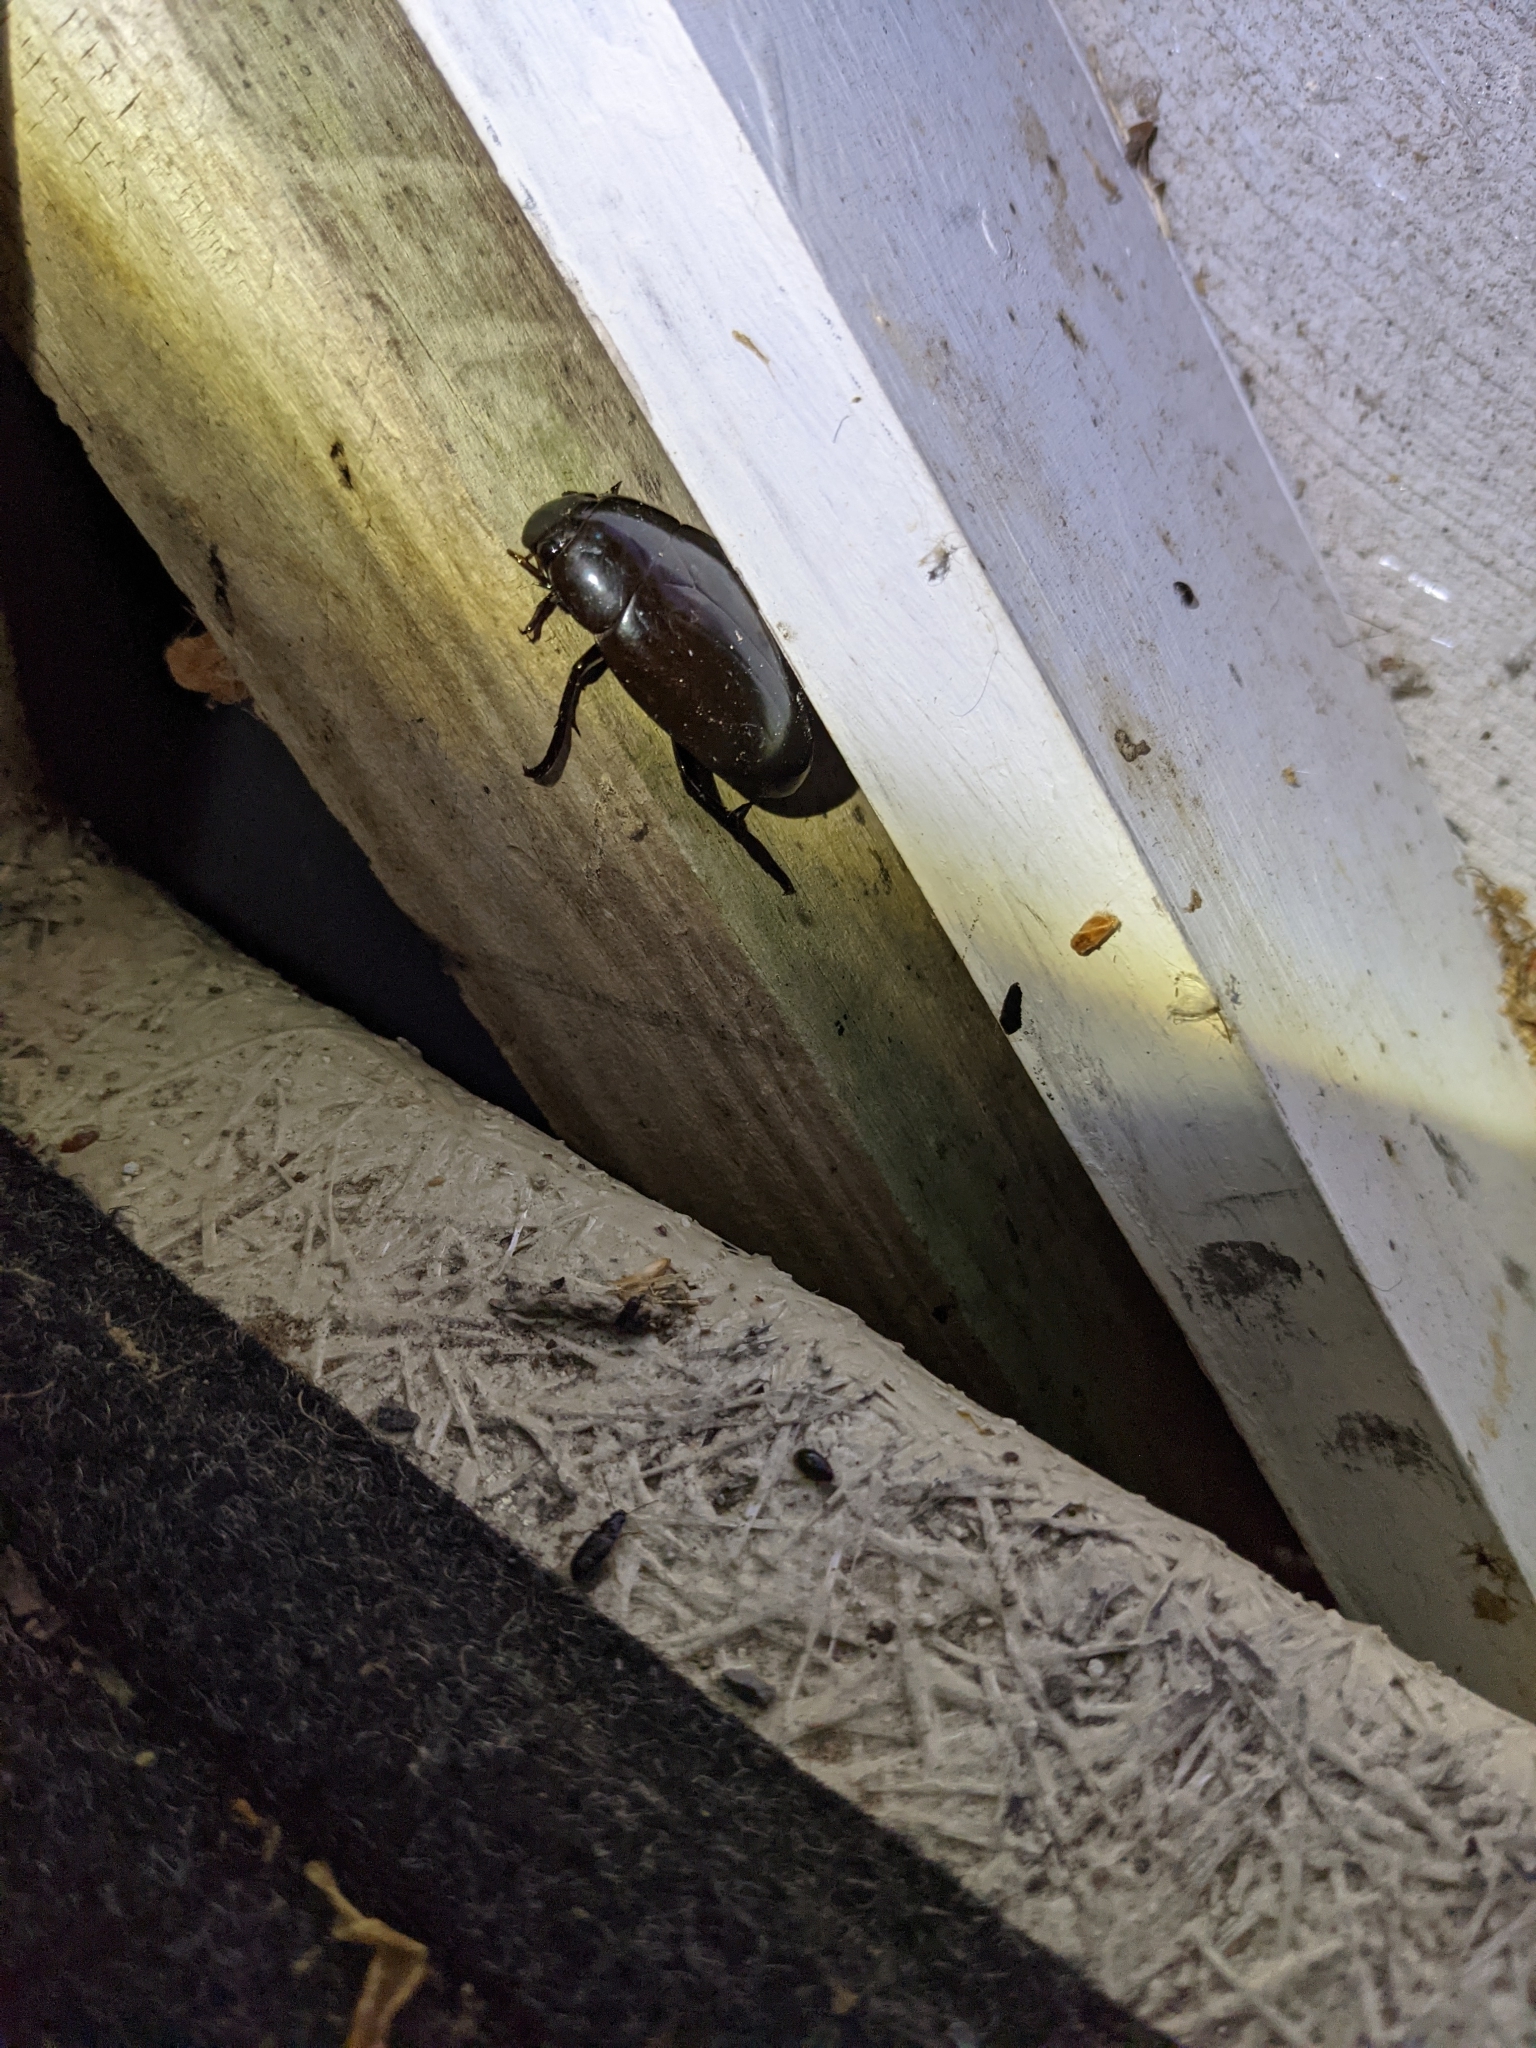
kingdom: Animalia
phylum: Arthropoda
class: Insecta
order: Coleoptera
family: Hydrophilidae
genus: Hydrophilus
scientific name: Hydrophilus ovatus
